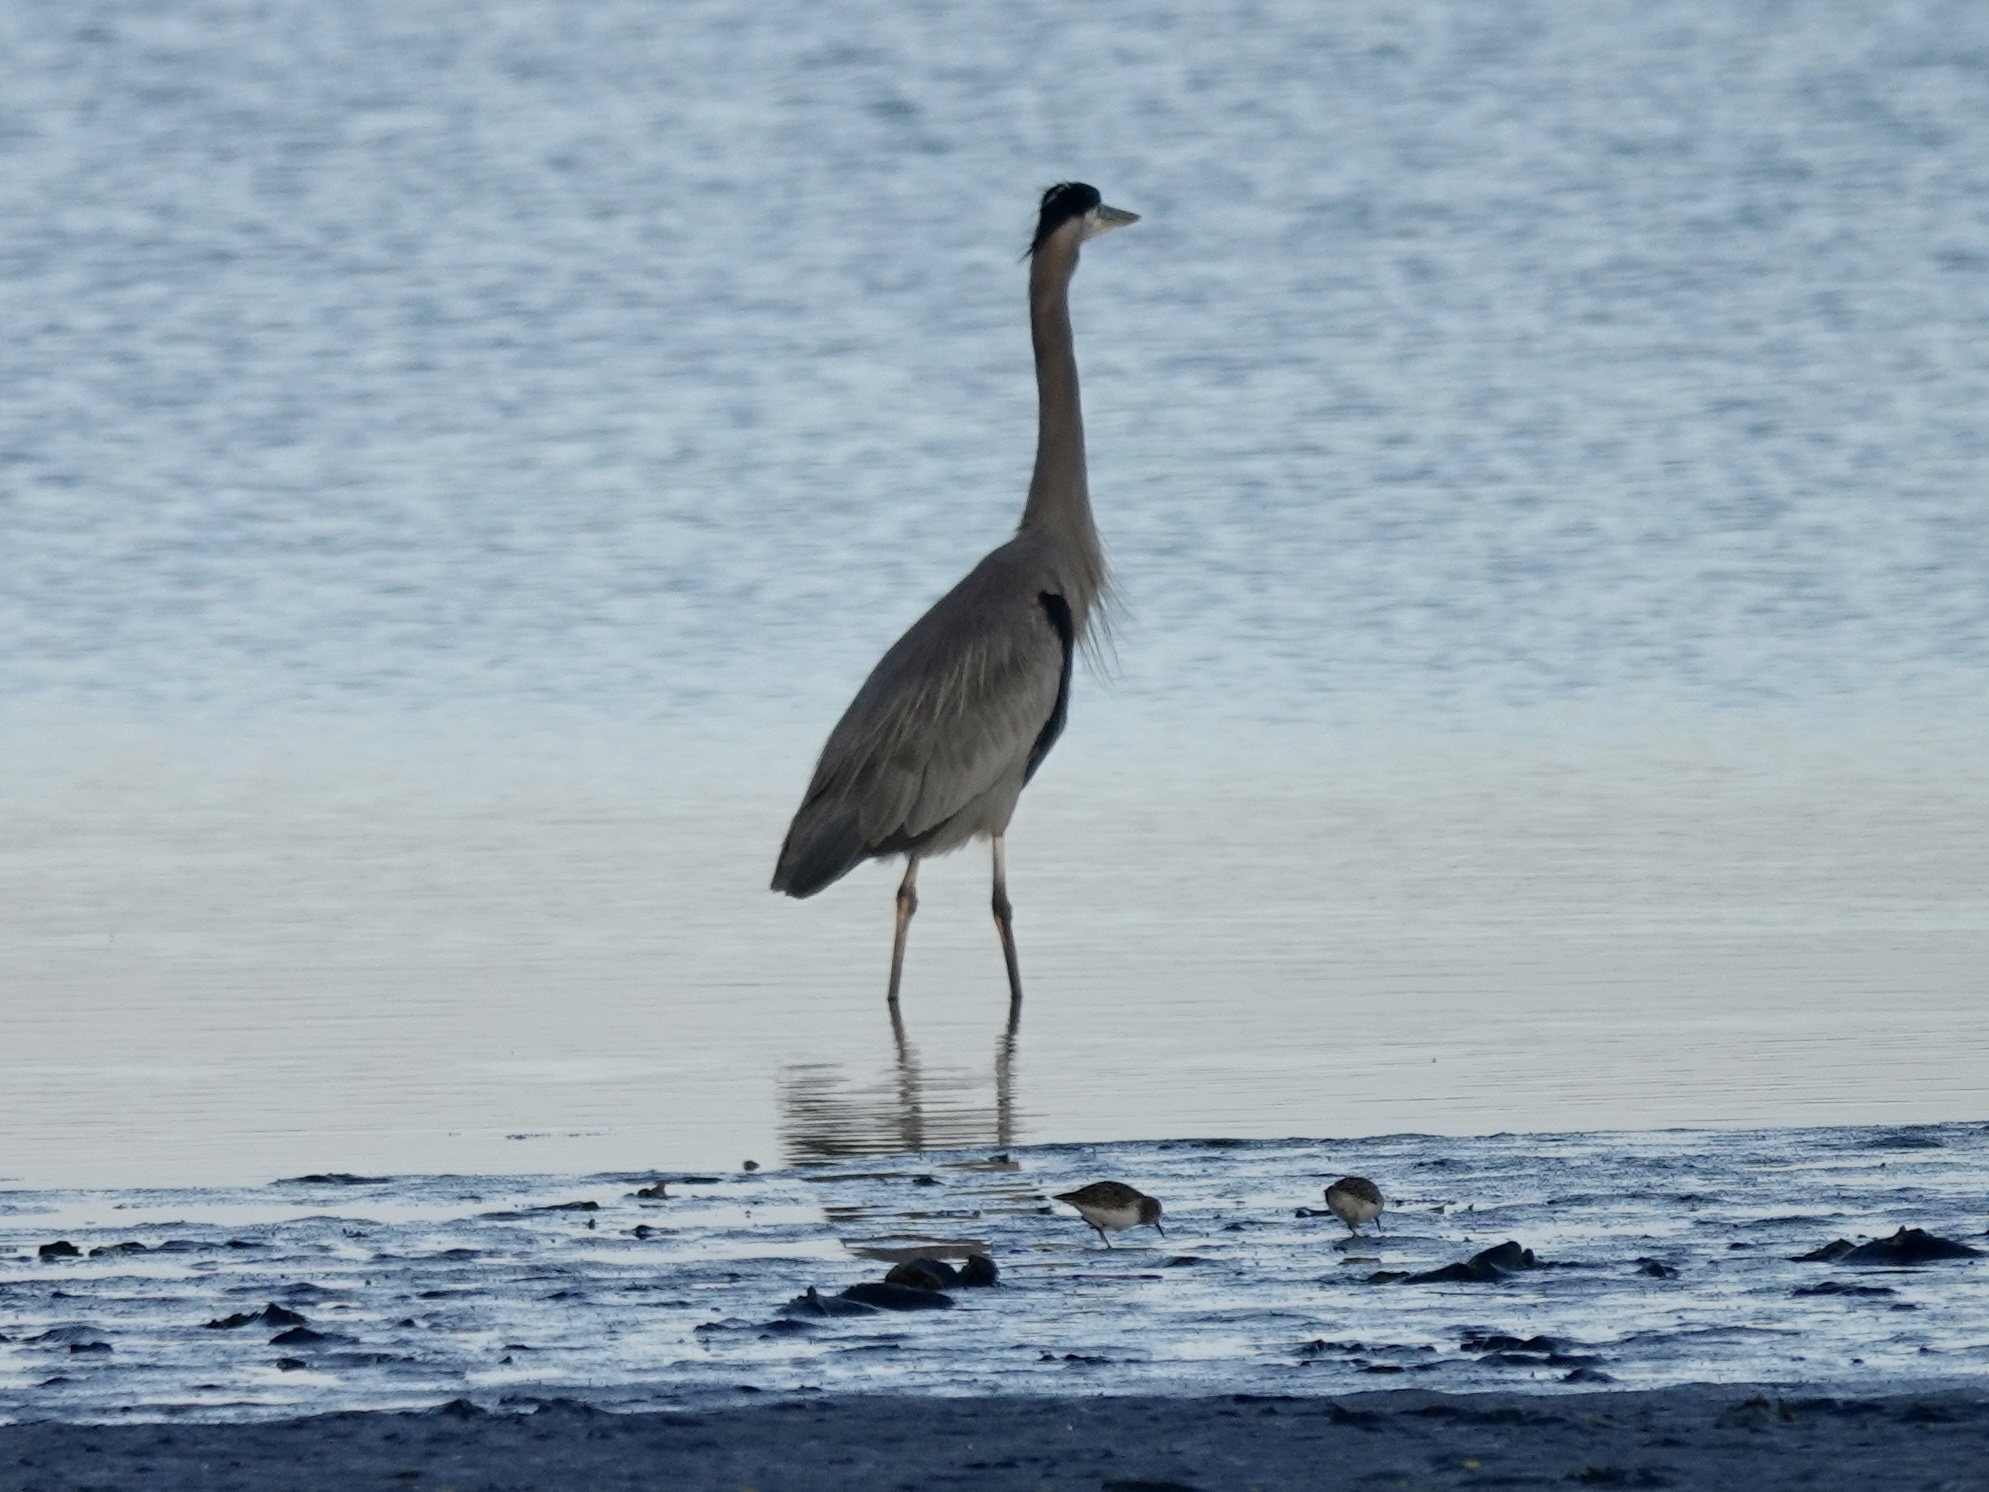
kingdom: Animalia
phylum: Chordata
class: Aves
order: Pelecaniformes
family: Ardeidae
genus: Ardea
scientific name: Ardea herodias
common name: Great blue heron
